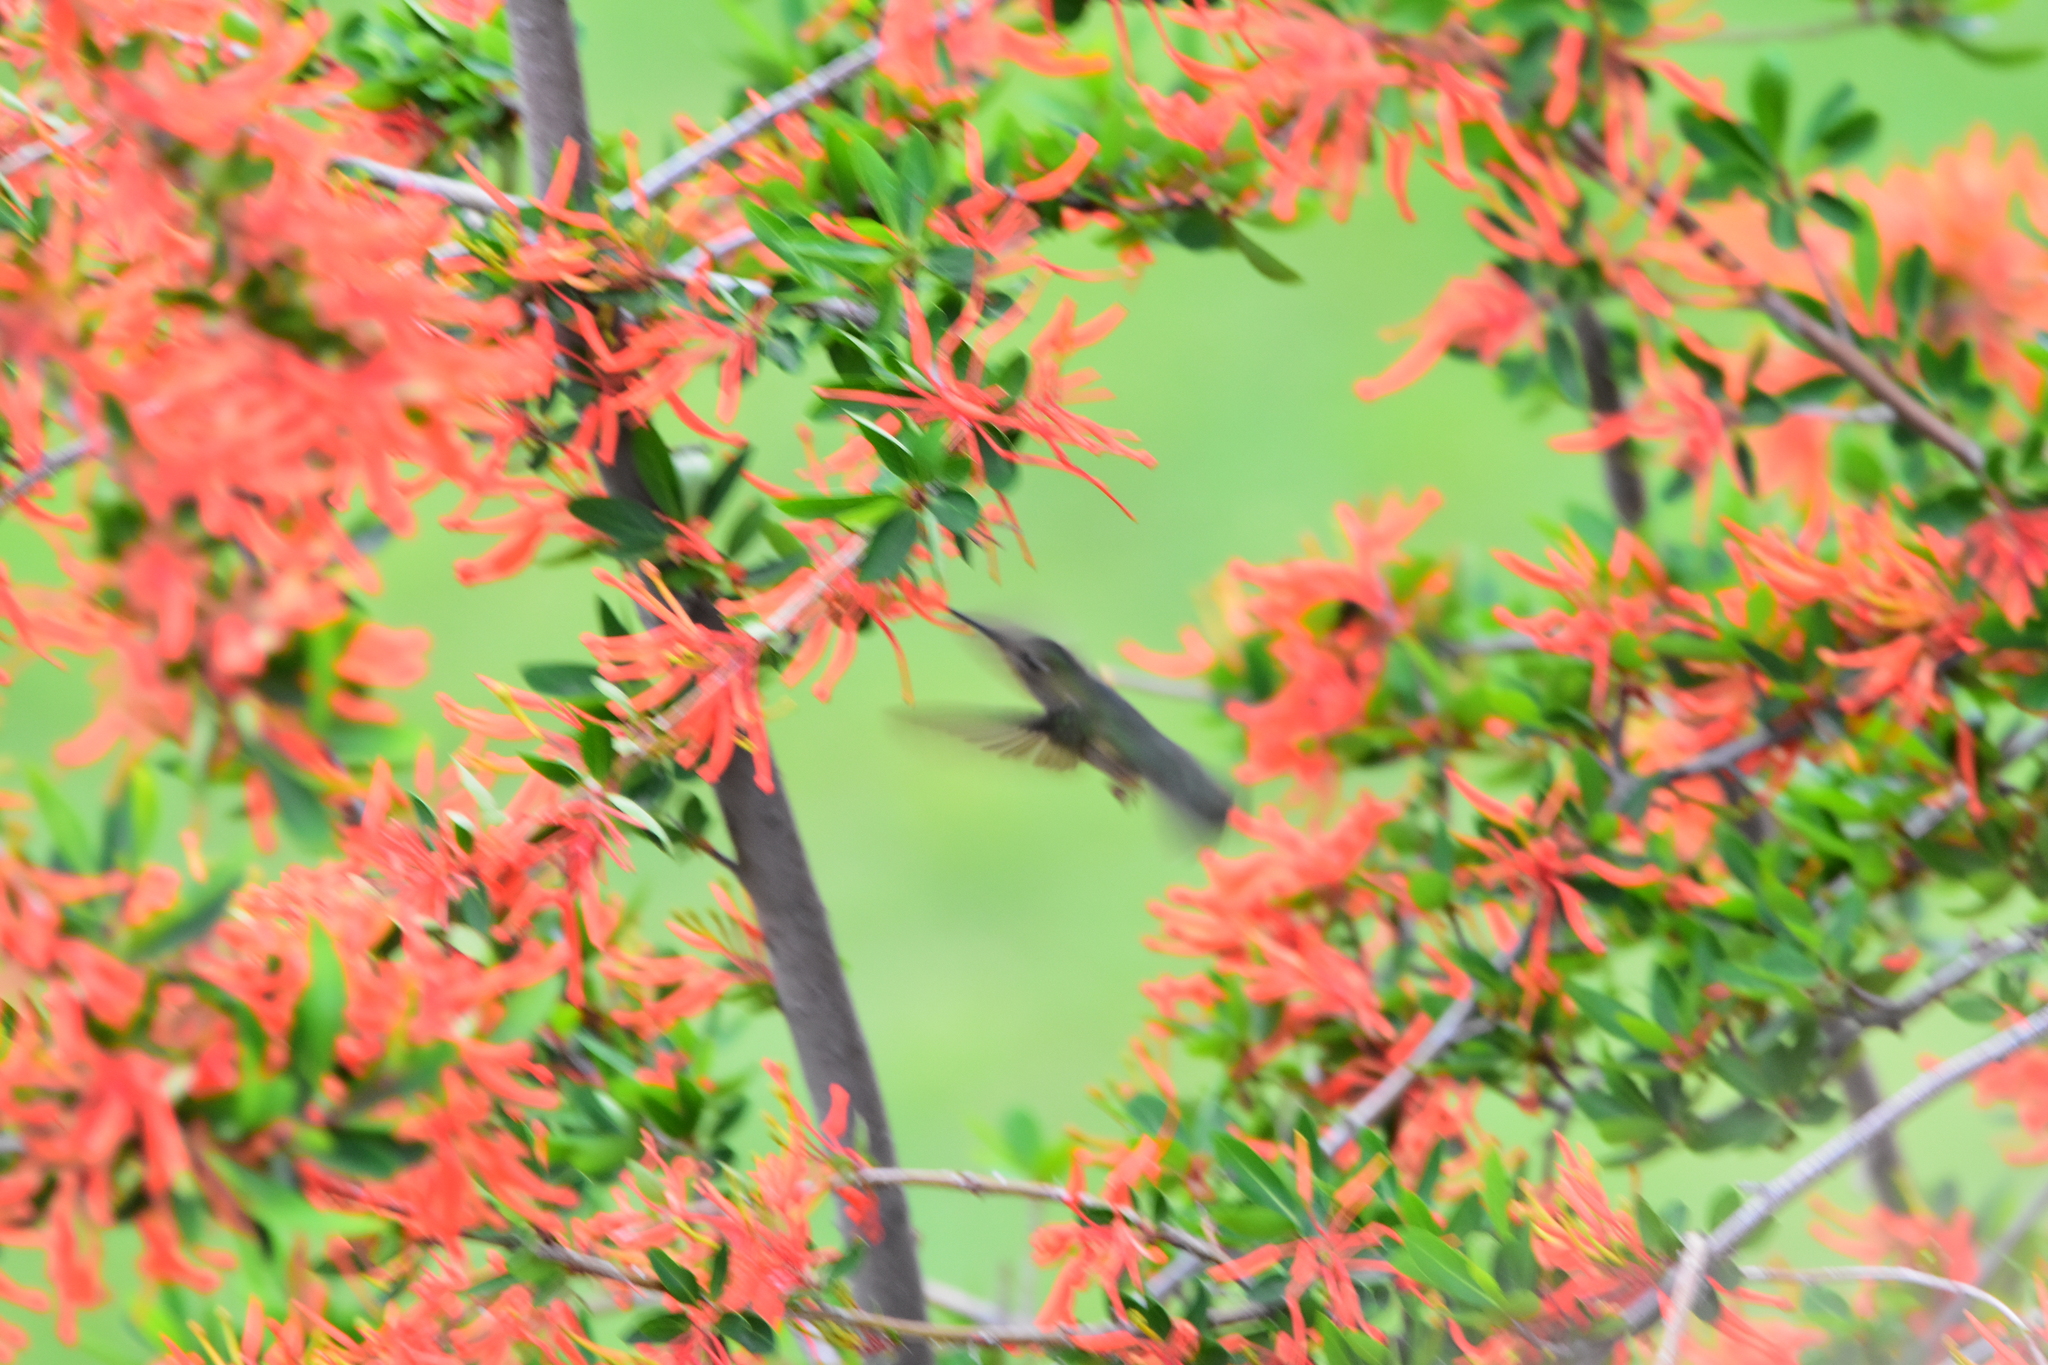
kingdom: Animalia
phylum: Chordata
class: Aves
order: Apodiformes
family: Trochilidae
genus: Sephanoides
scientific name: Sephanoides sephaniodes
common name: Green-backed firecrown
